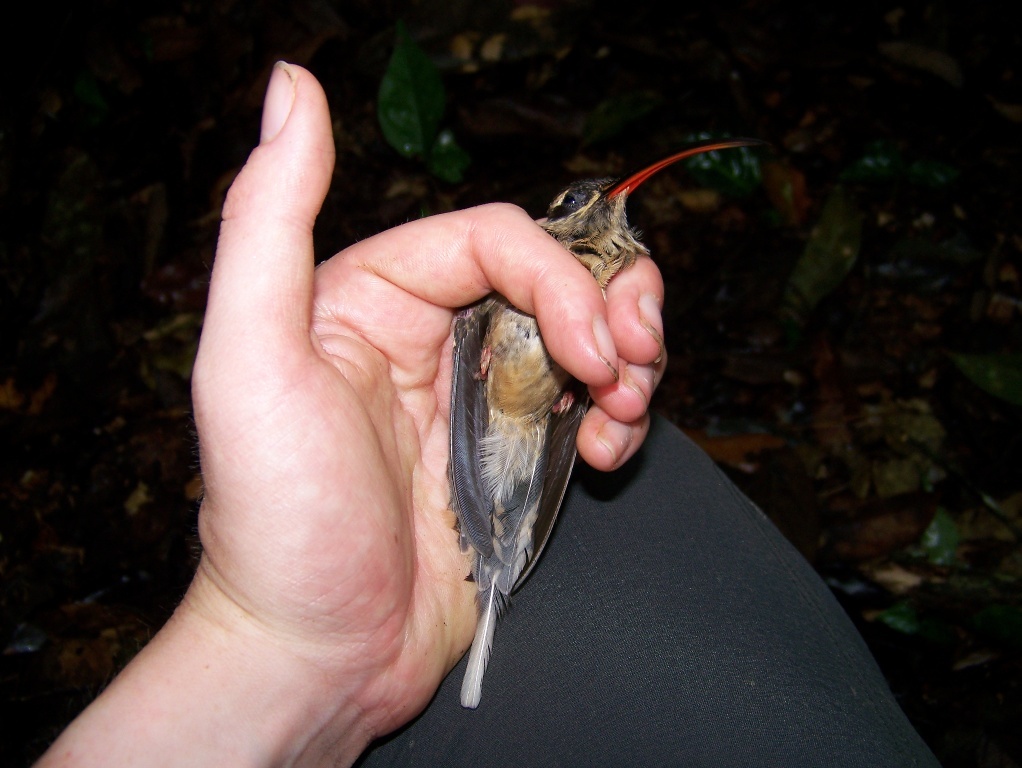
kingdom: Animalia
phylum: Chordata
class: Aves
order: Apodiformes
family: Trochilidae
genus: Phaethornis
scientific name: Phaethornis malaris
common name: Great-billed hermit
